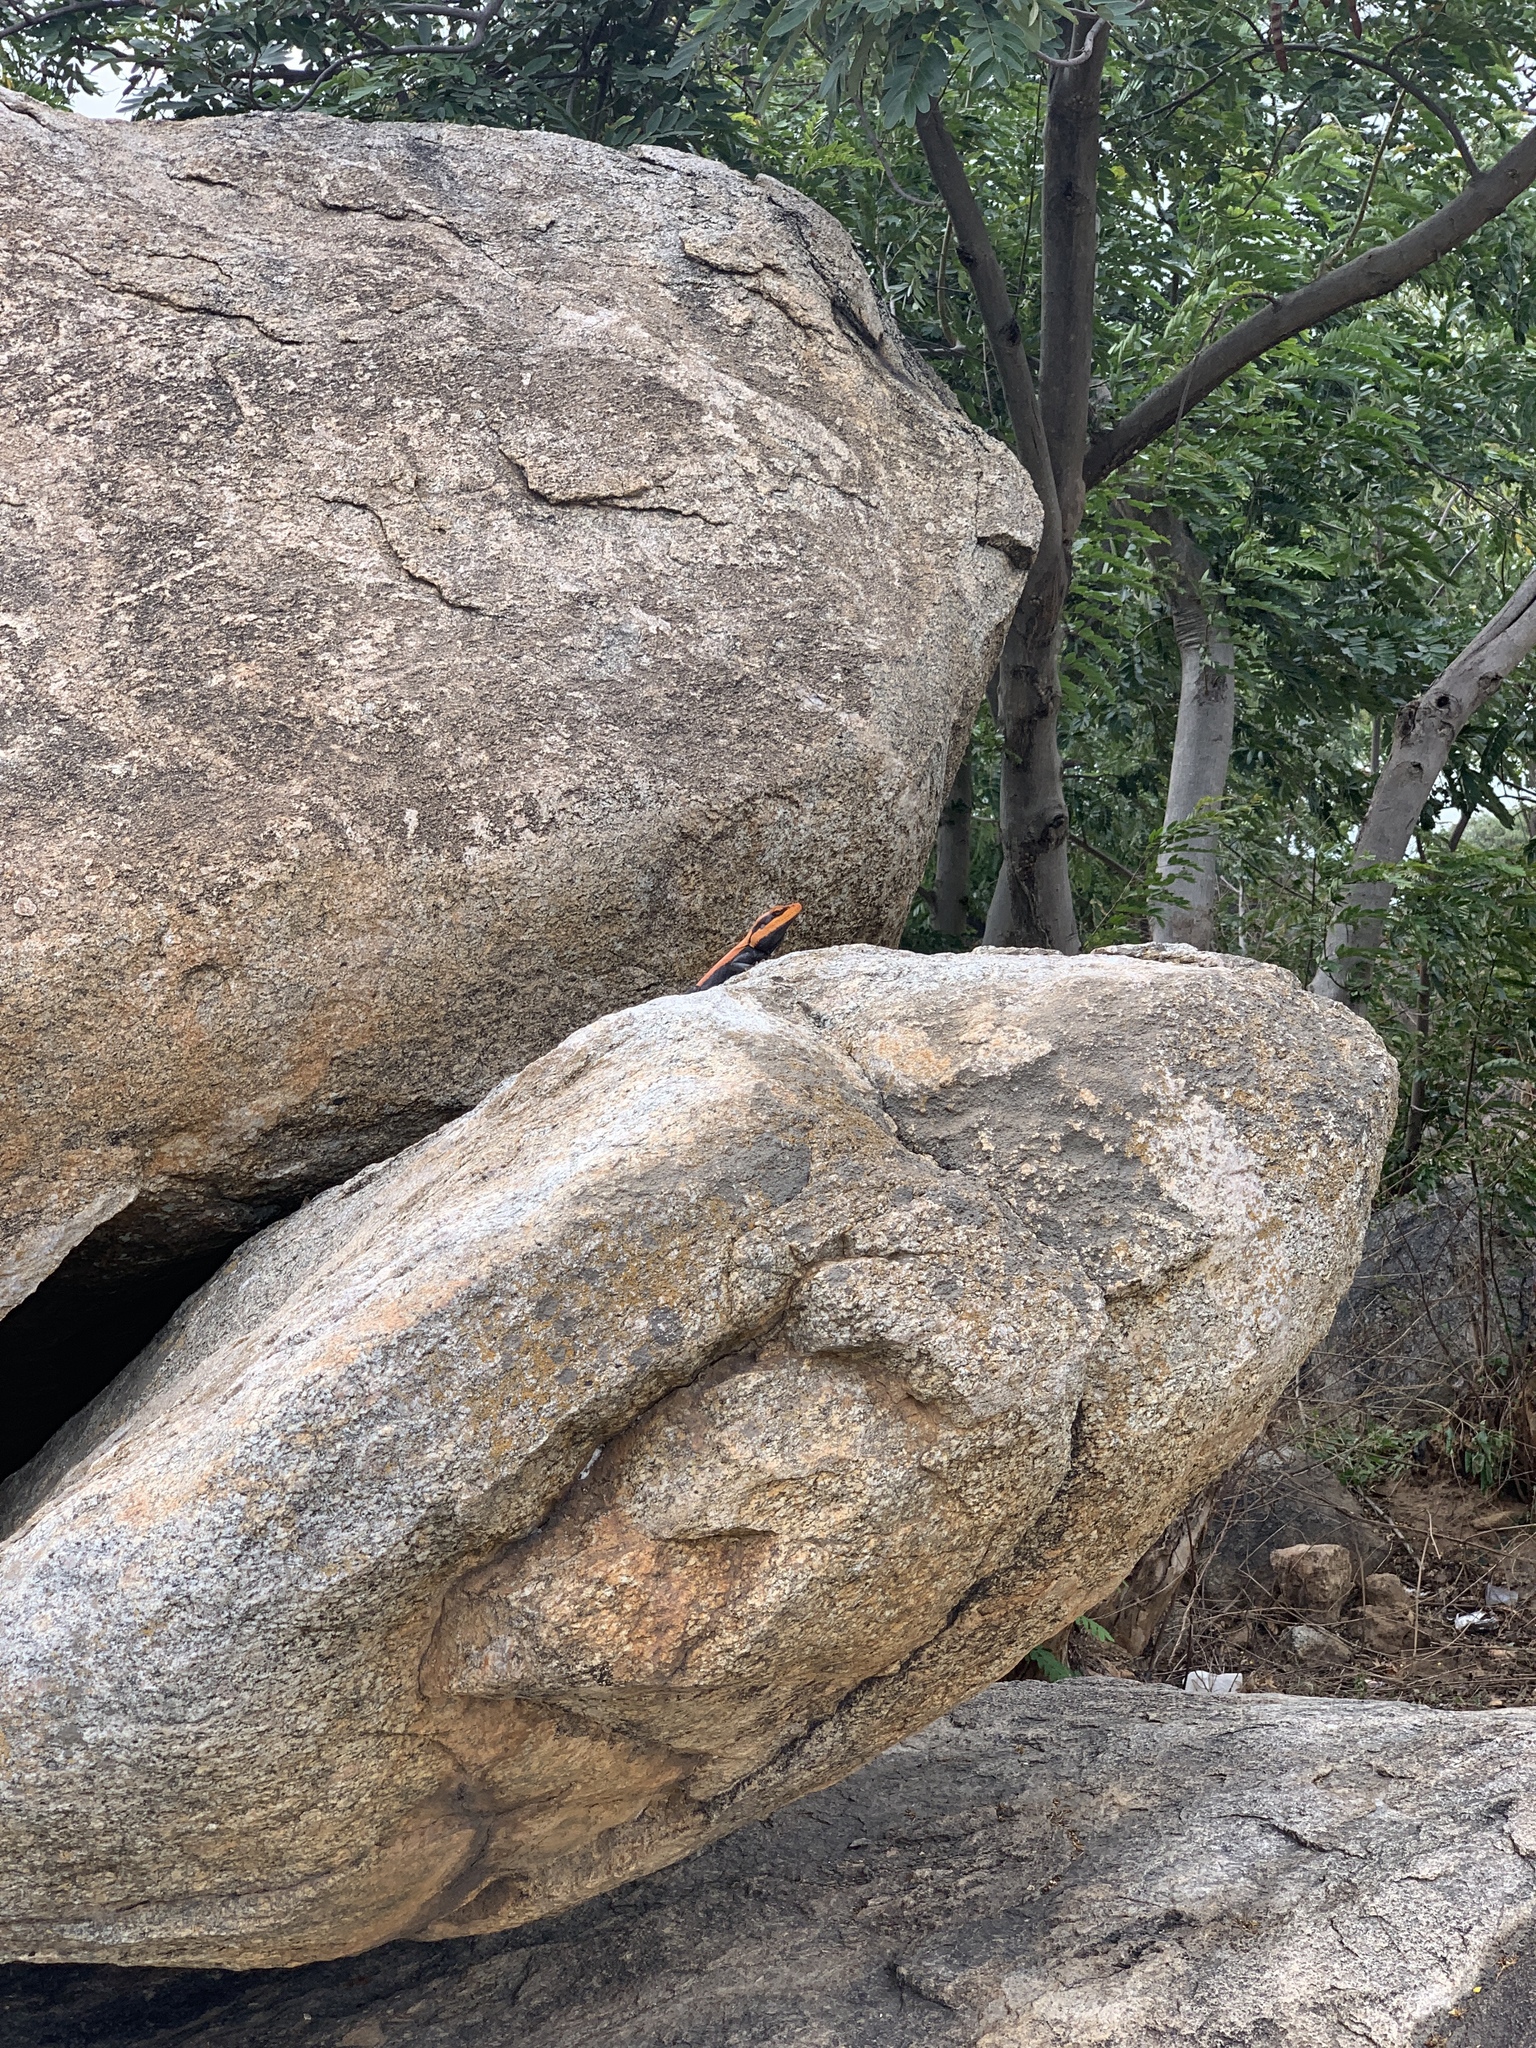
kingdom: Animalia
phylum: Chordata
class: Squamata
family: Agamidae
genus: Psammophilus
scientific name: Psammophilus dorsalis
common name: South indian rock agama
